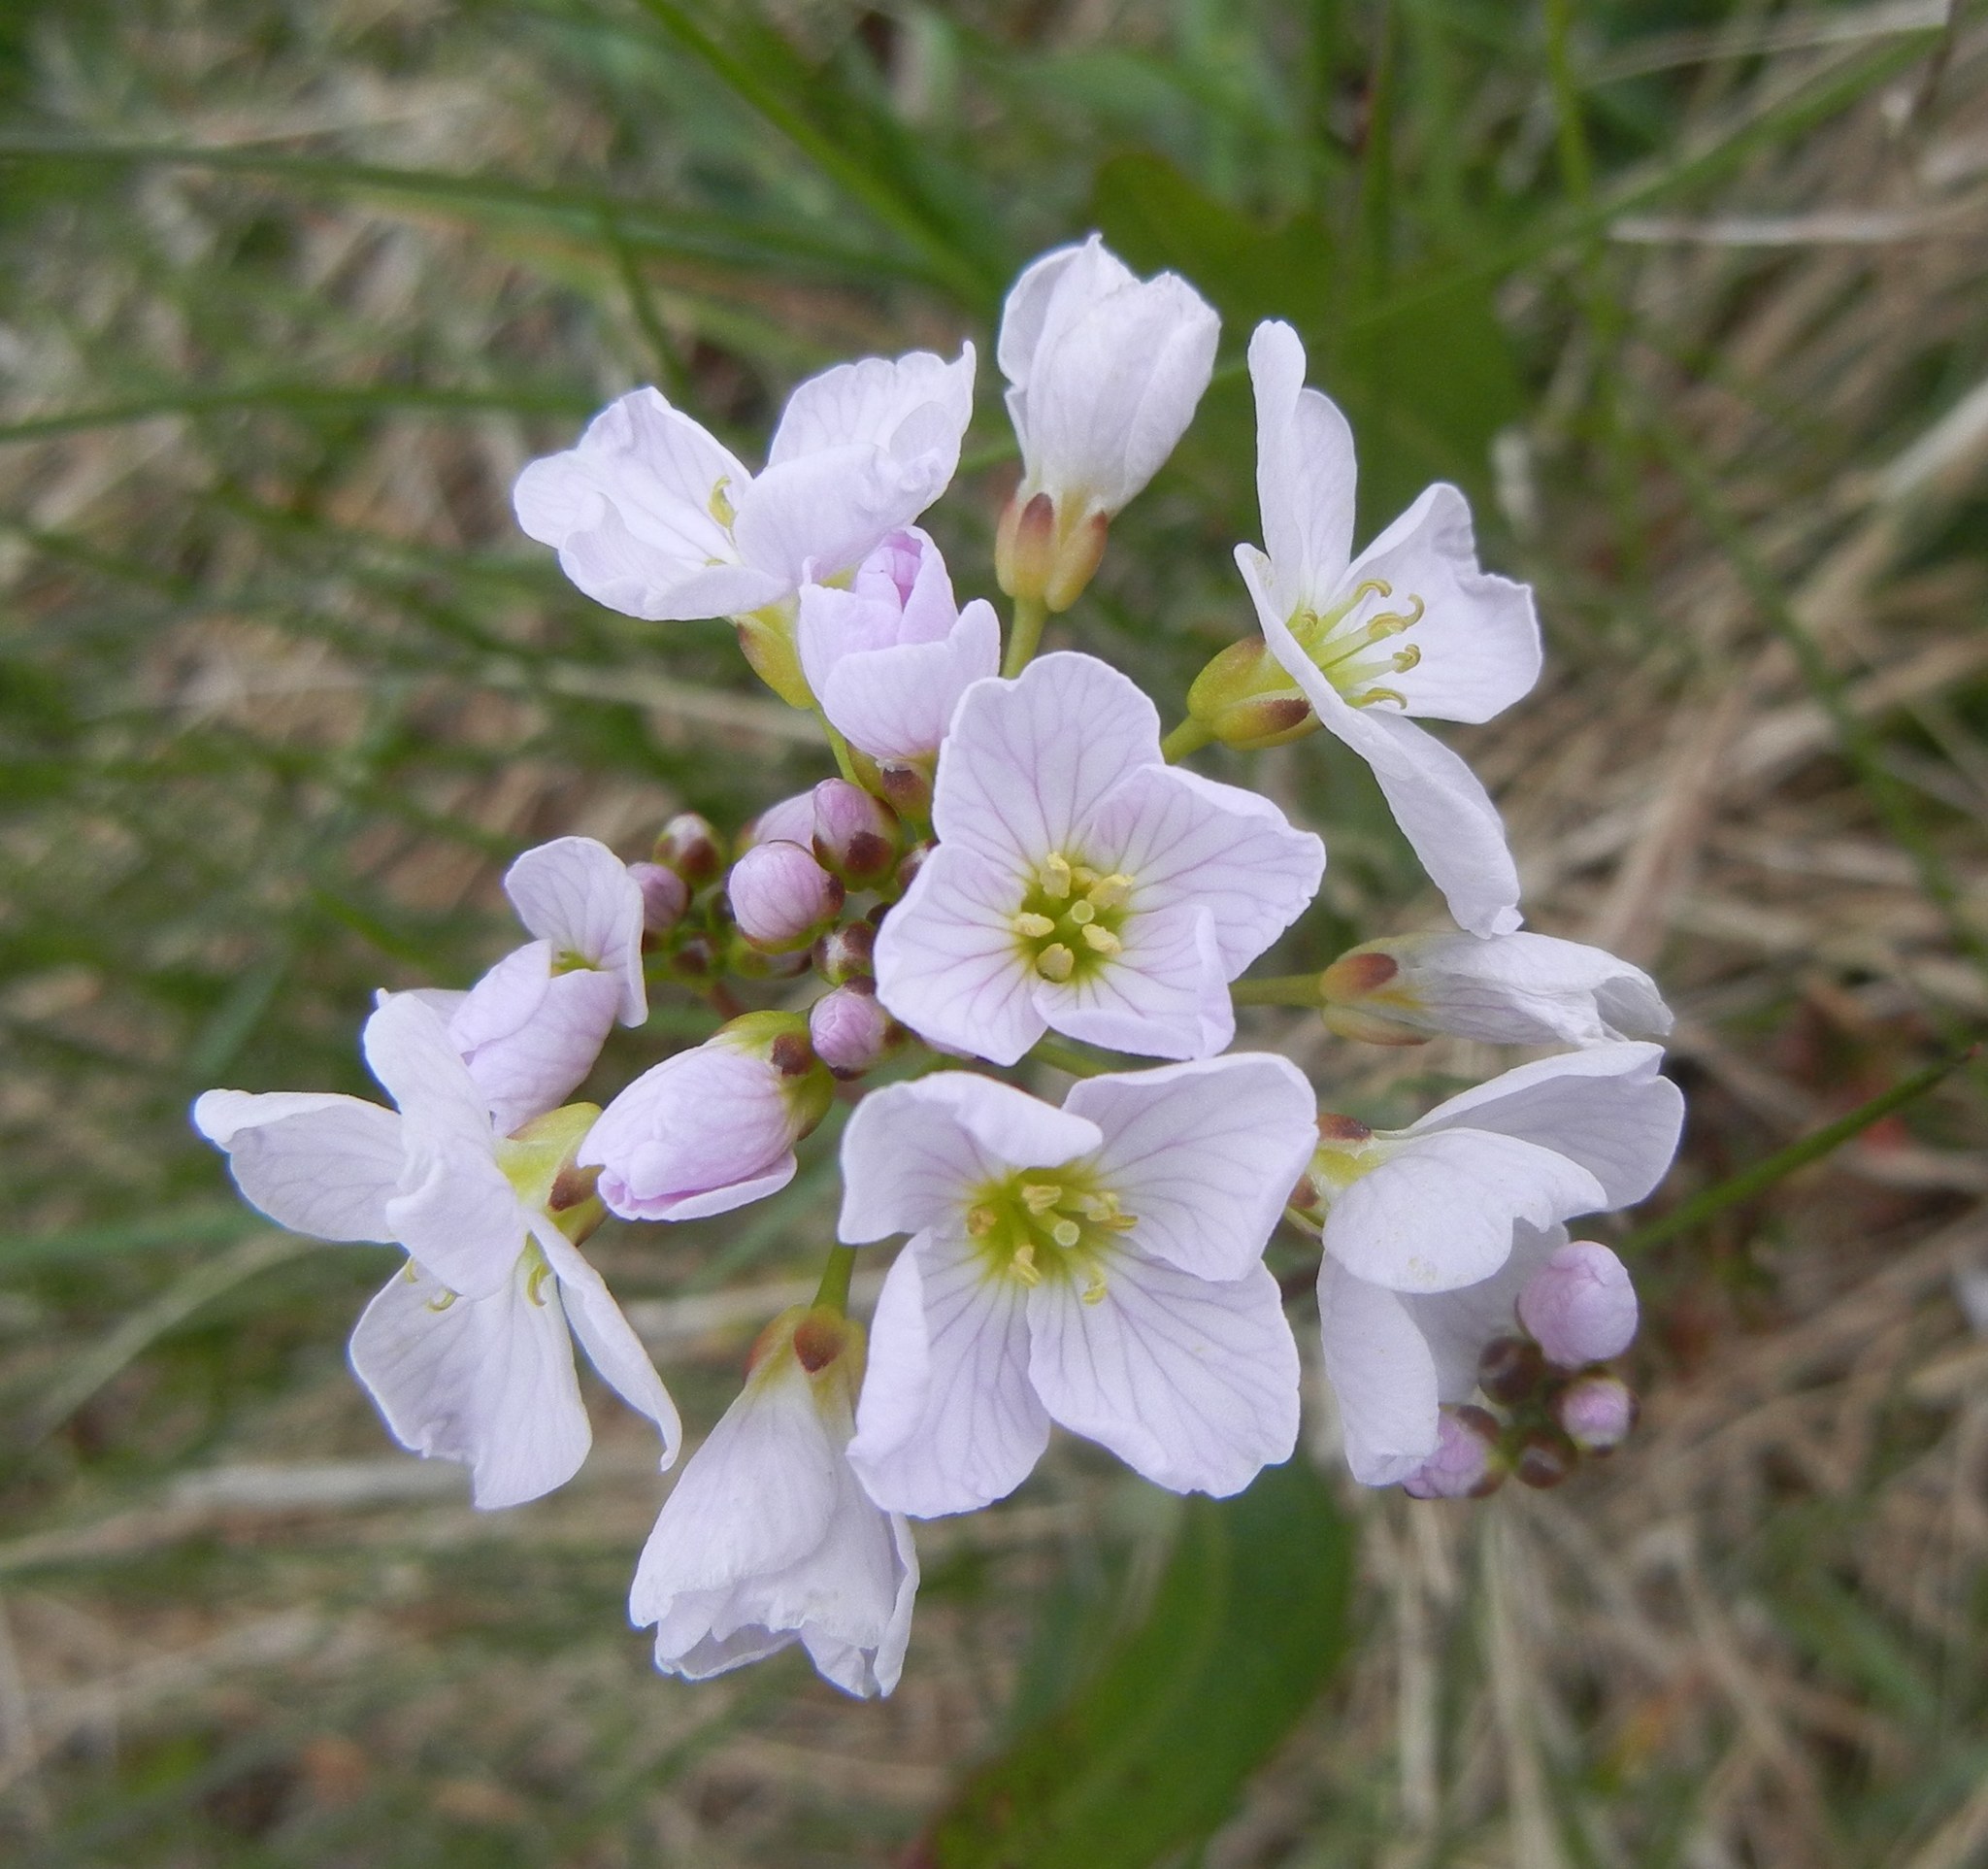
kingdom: Plantae
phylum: Tracheophyta
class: Magnoliopsida
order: Brassicales
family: Brassicaceae
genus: Cardamine
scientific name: Cardamine pratensis
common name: Cuckoo flower
